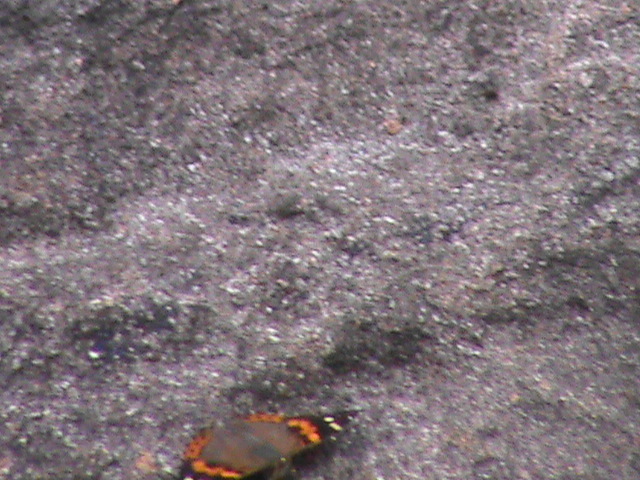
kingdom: Animalia
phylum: Arthropoda
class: Insecta
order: Lepidoptera
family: Nymphalidae
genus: Vanessa
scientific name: Vanessa indica
